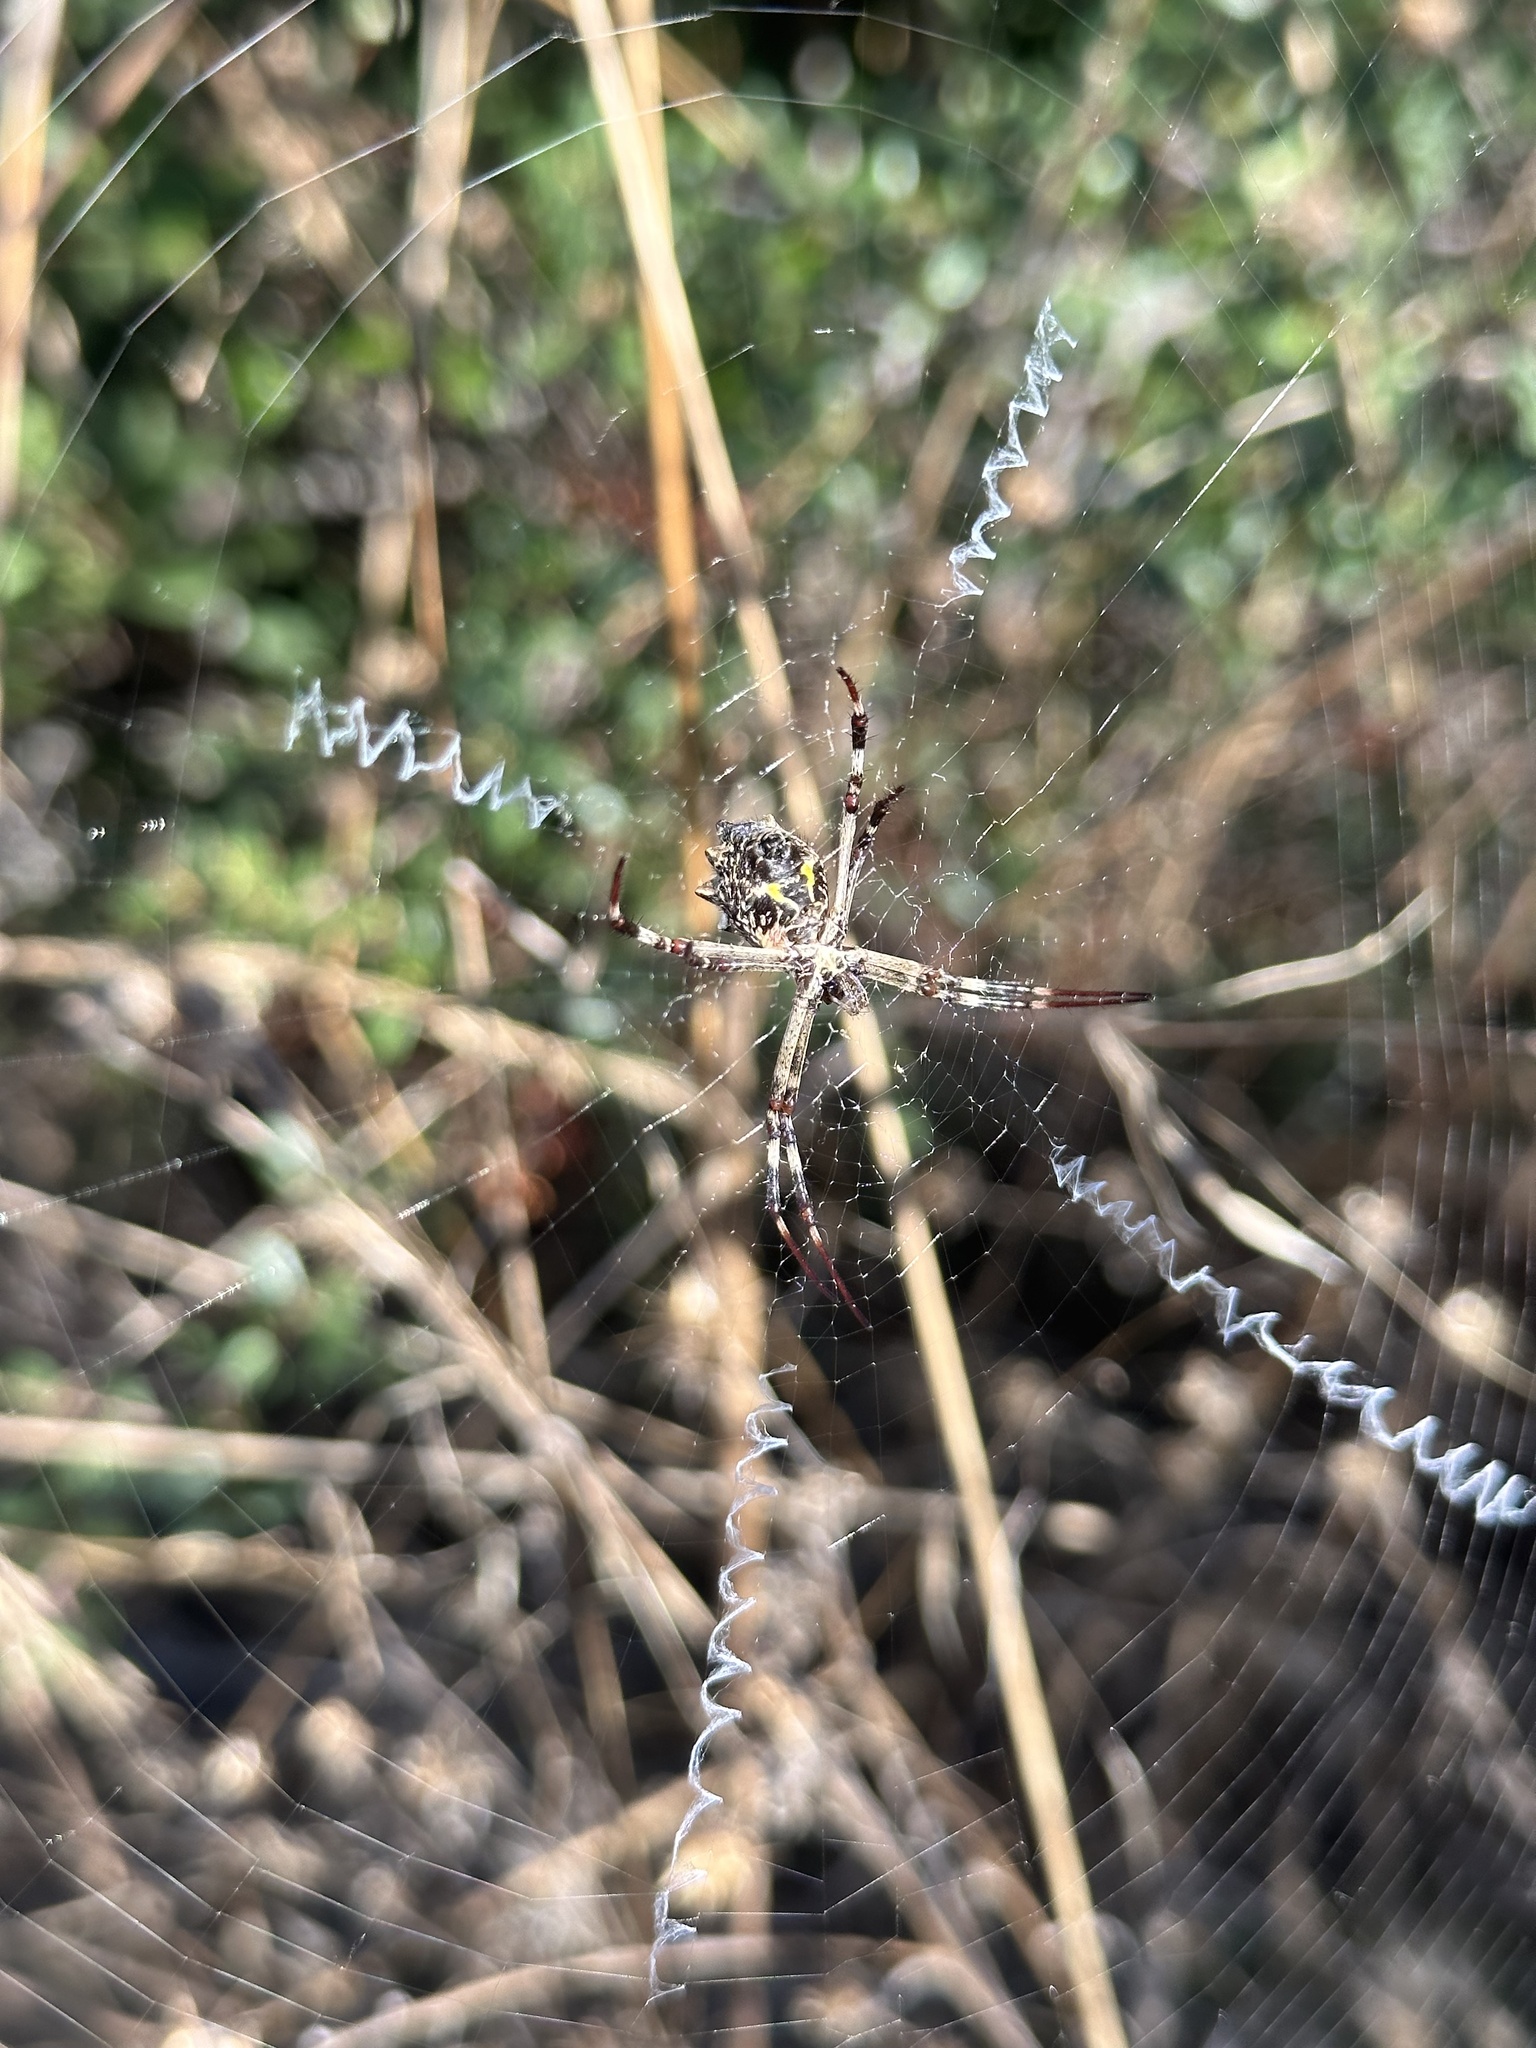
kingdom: Animalia
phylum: Arthropoda
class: Arachnida
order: Araneae
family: Araneidae
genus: Argiope
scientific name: Argiope argentata
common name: Orb weavers
